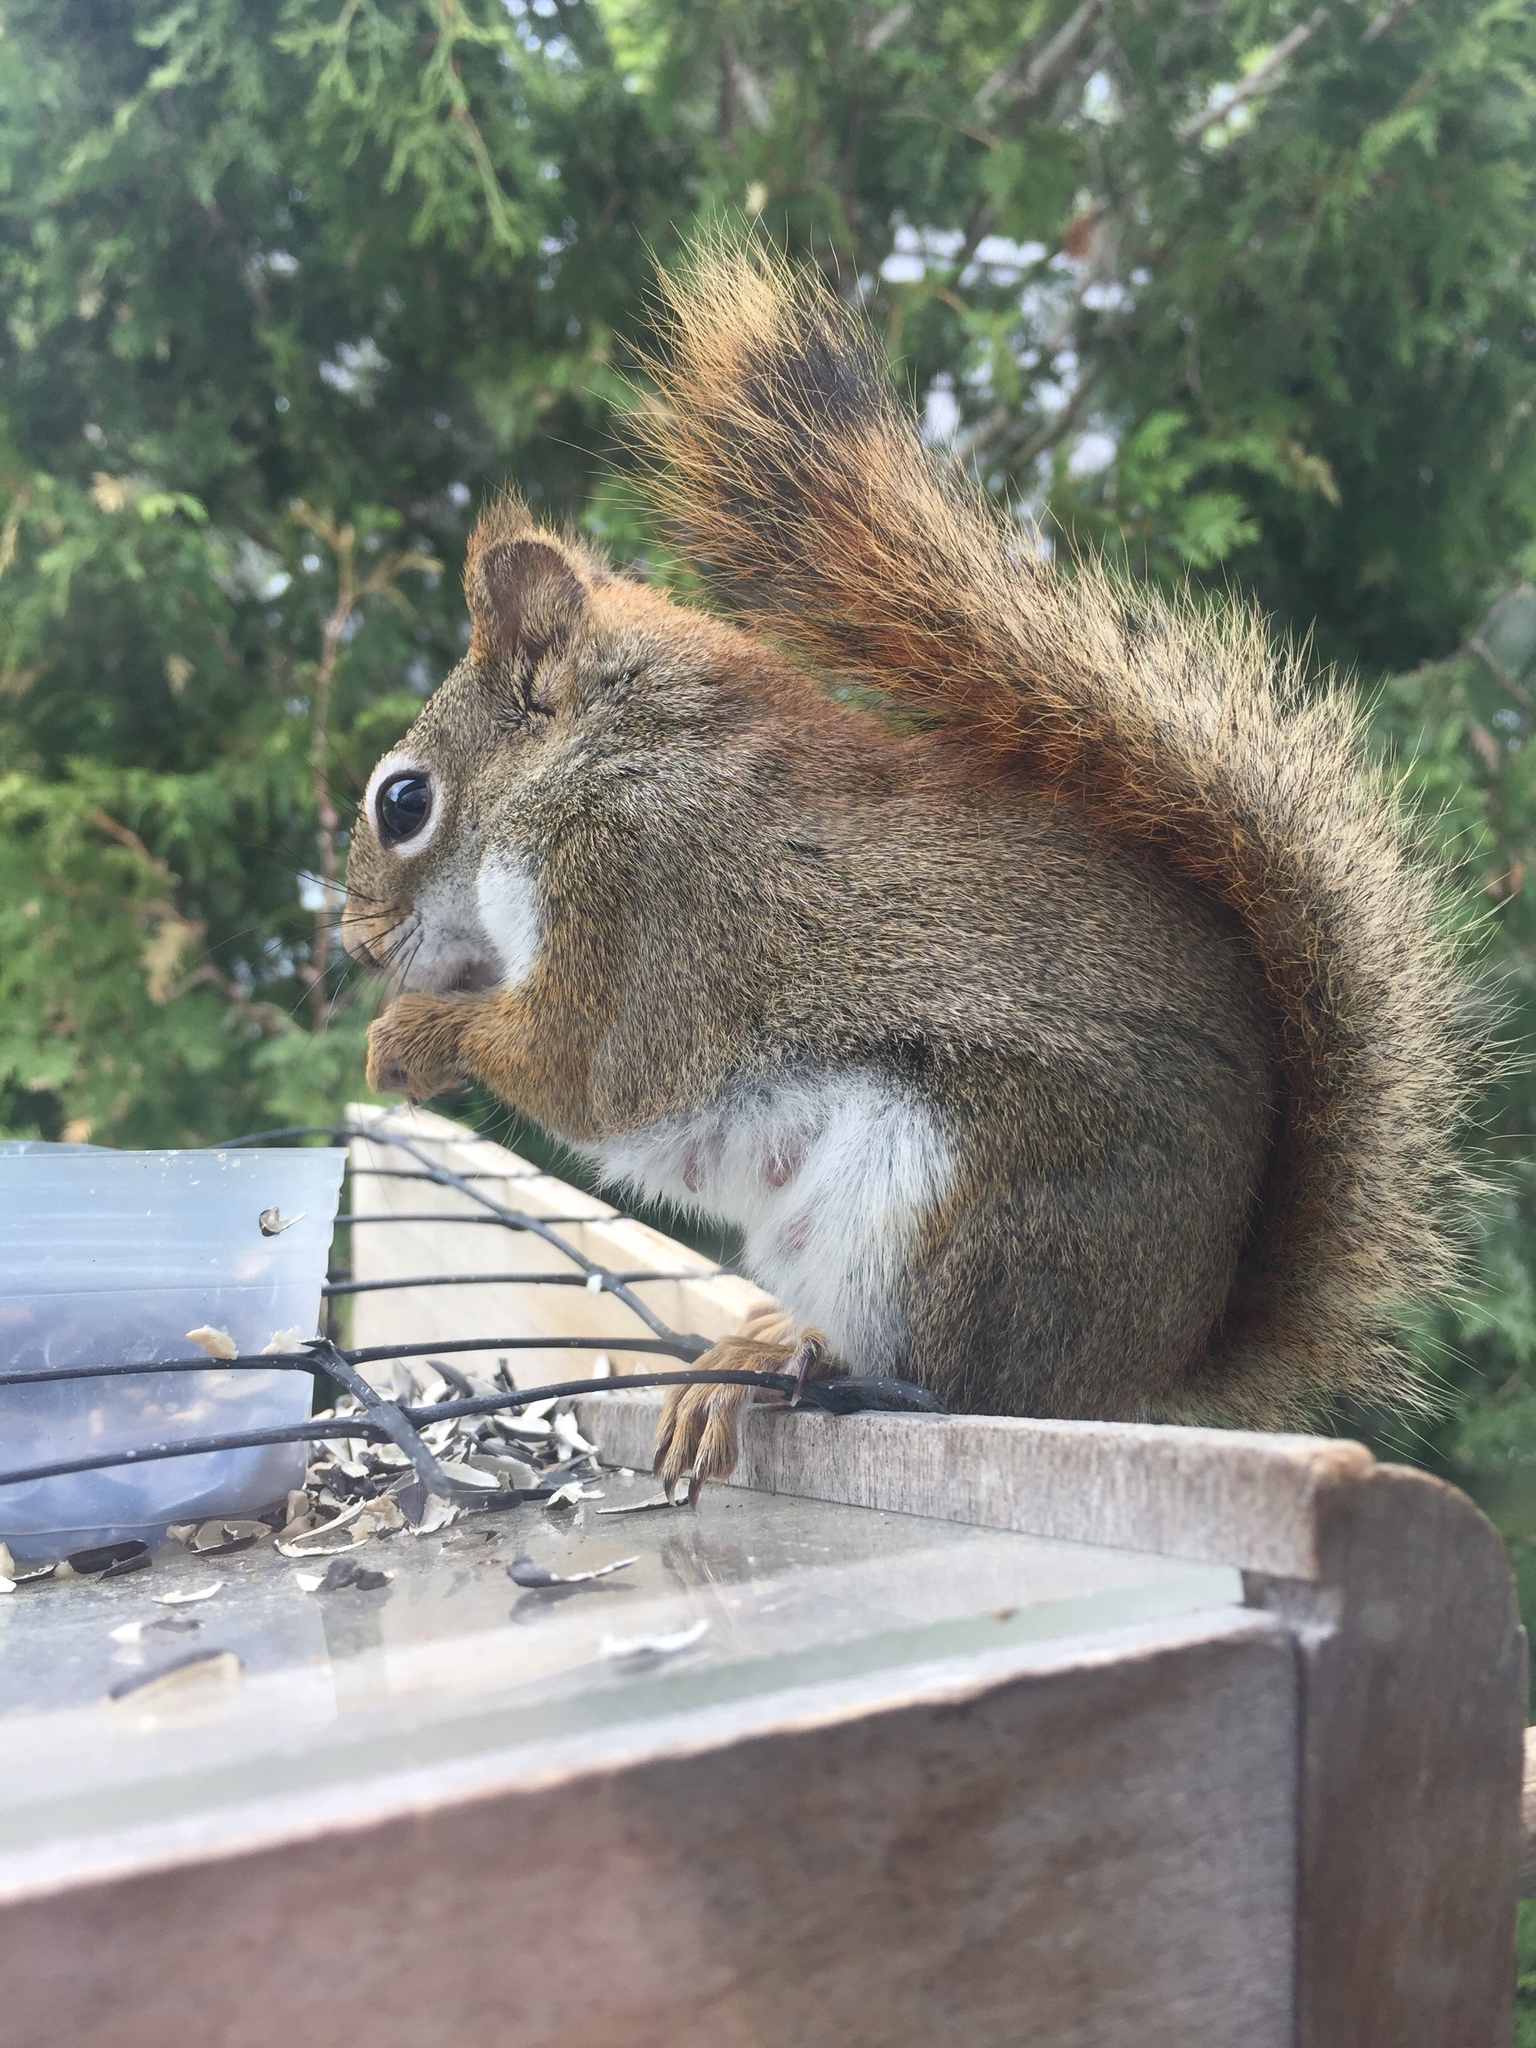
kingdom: Animalia
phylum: Chordata
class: Mammalia
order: Rodentia
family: Sciuridae
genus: Tamiasciurus
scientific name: Tamiasciurus hudsonicus
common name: Red squirrel
